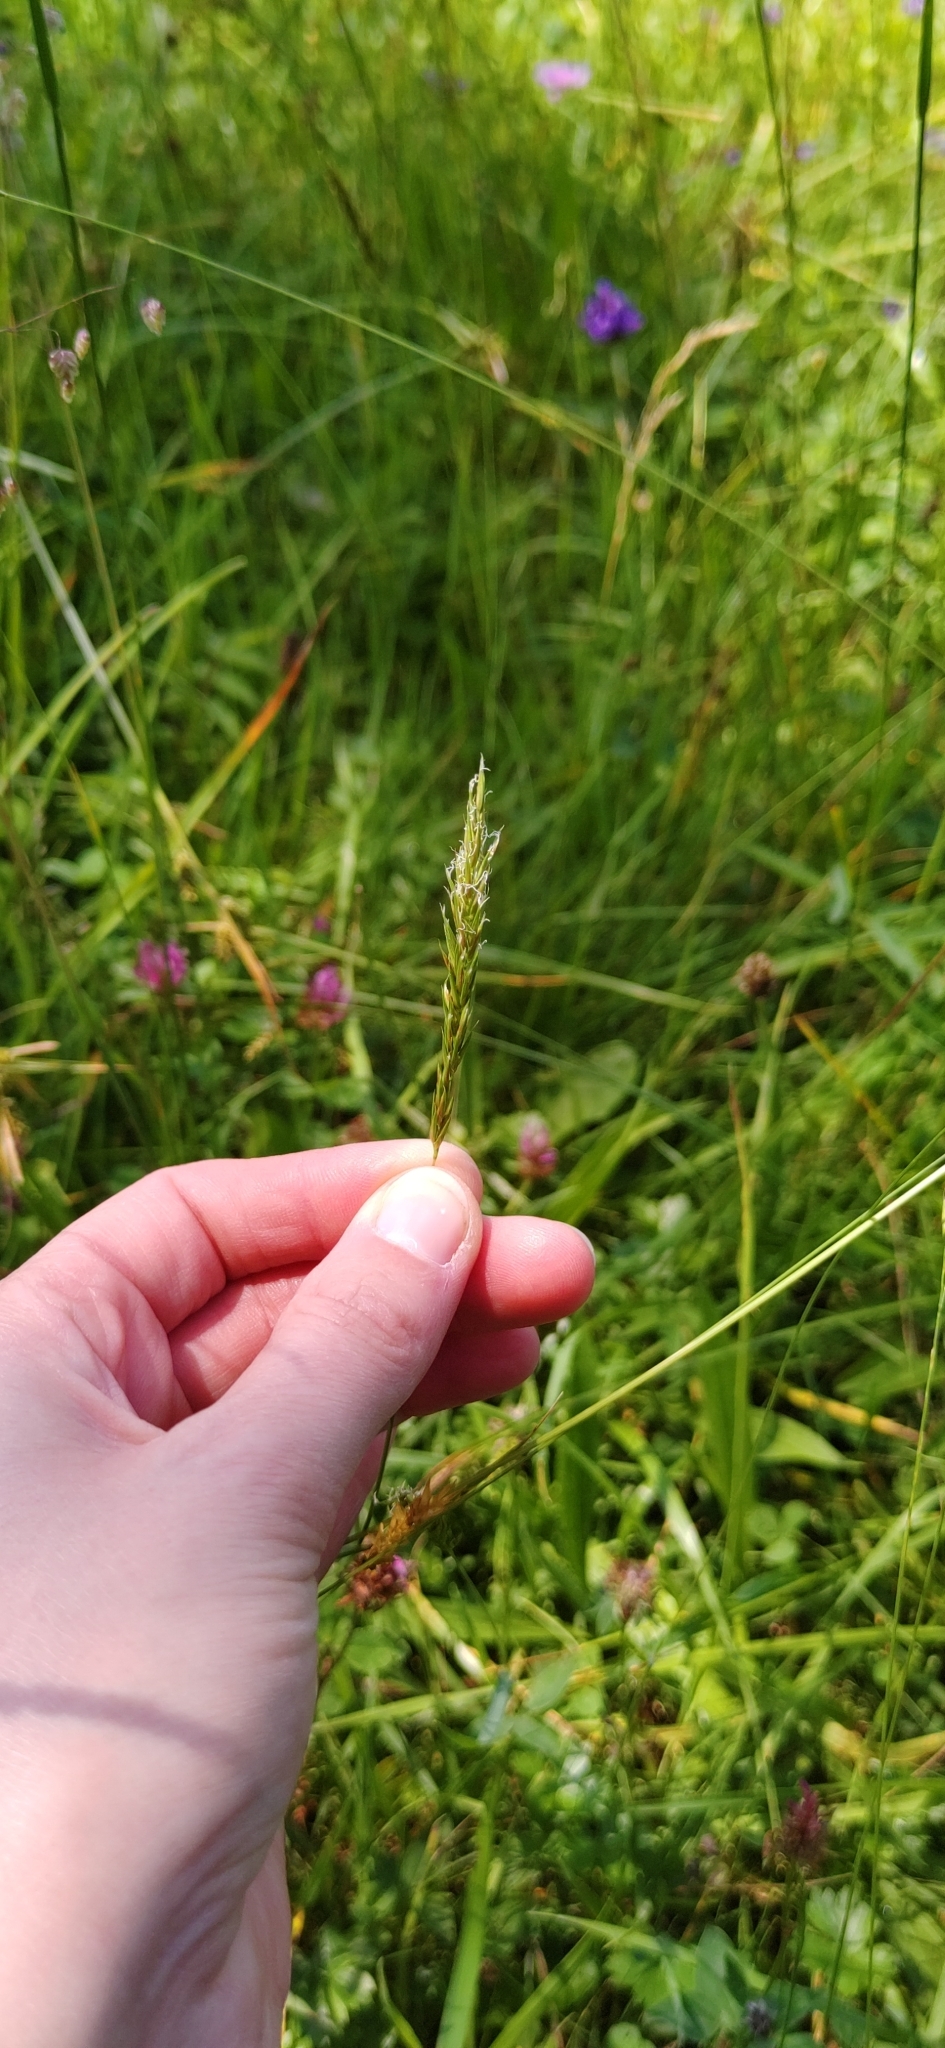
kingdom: Plantae
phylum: Tracheophyta
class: Liliopsida
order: Poales
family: Poaceae
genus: Anthoxanthum
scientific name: Anthoxanthum odoratum
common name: Sweet vernalgrass
